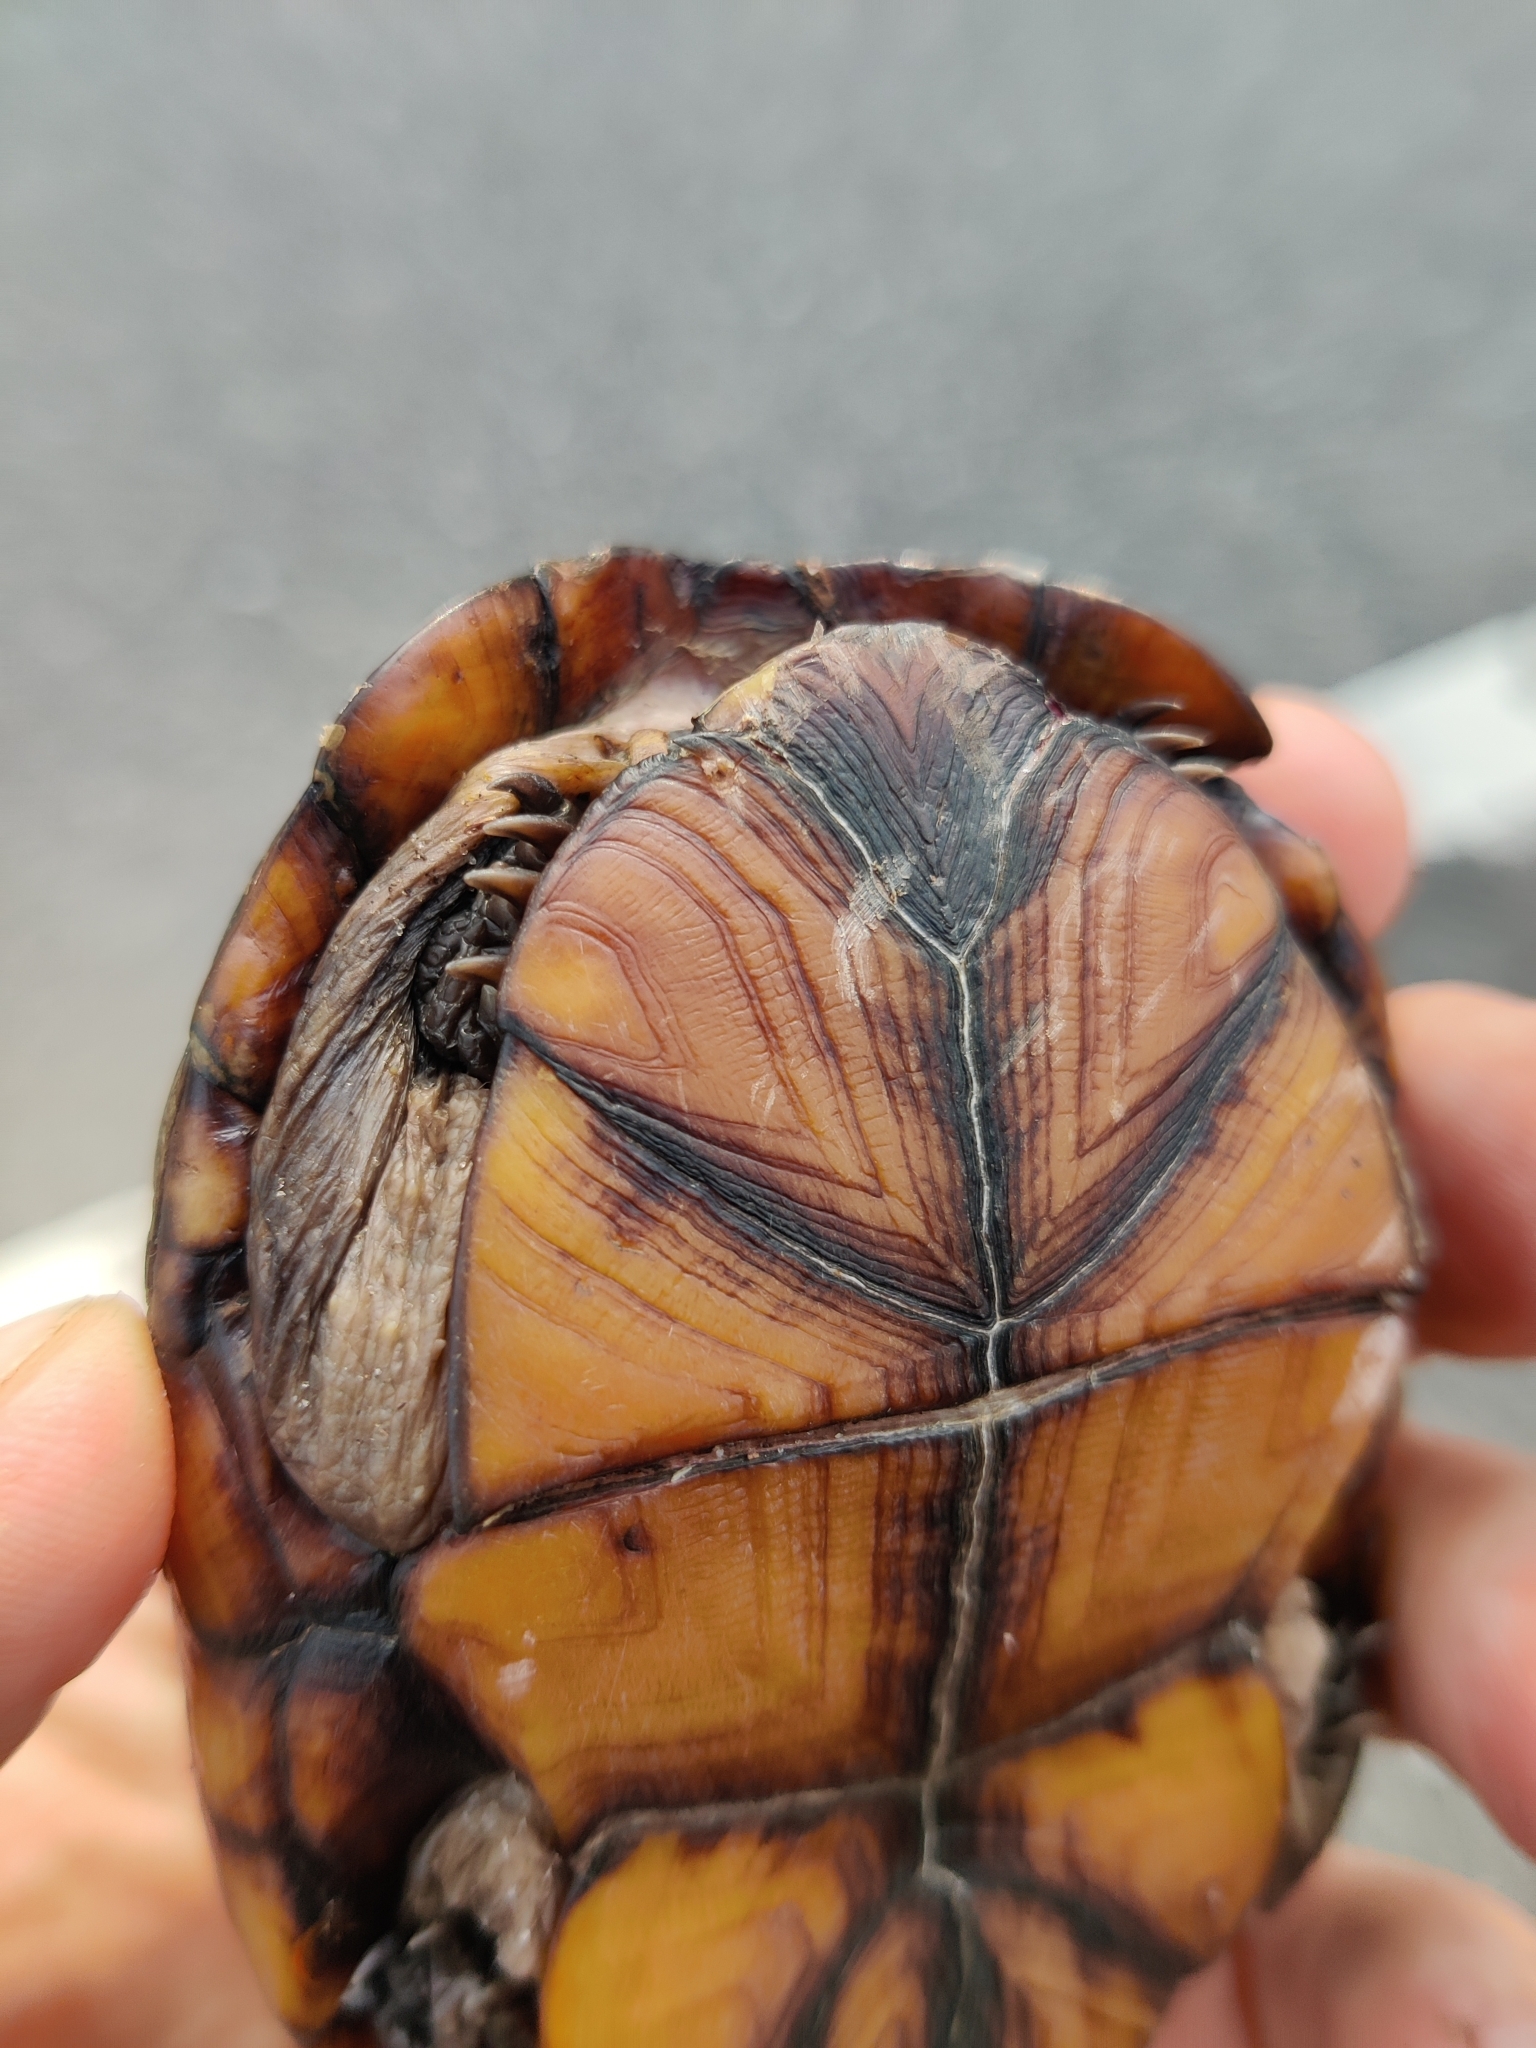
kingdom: Animalia
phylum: Chordata
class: Testudines
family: Kinosternidae
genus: Kinosternon
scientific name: Kinosternon subrubrum
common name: Eastern mud turtle
